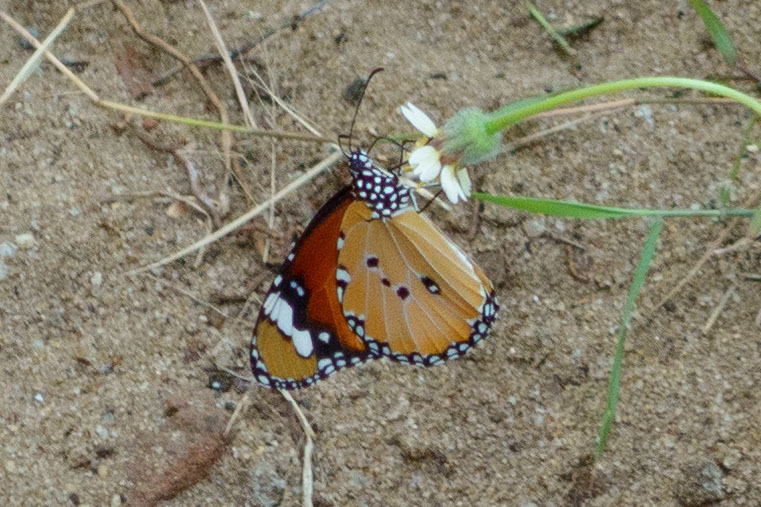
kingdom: Animalia
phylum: Arthropoda
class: Insecta
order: Lepidoptera
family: Nymphalidae
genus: Danaus
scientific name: Danaus chrysippus
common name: Plain tiger
